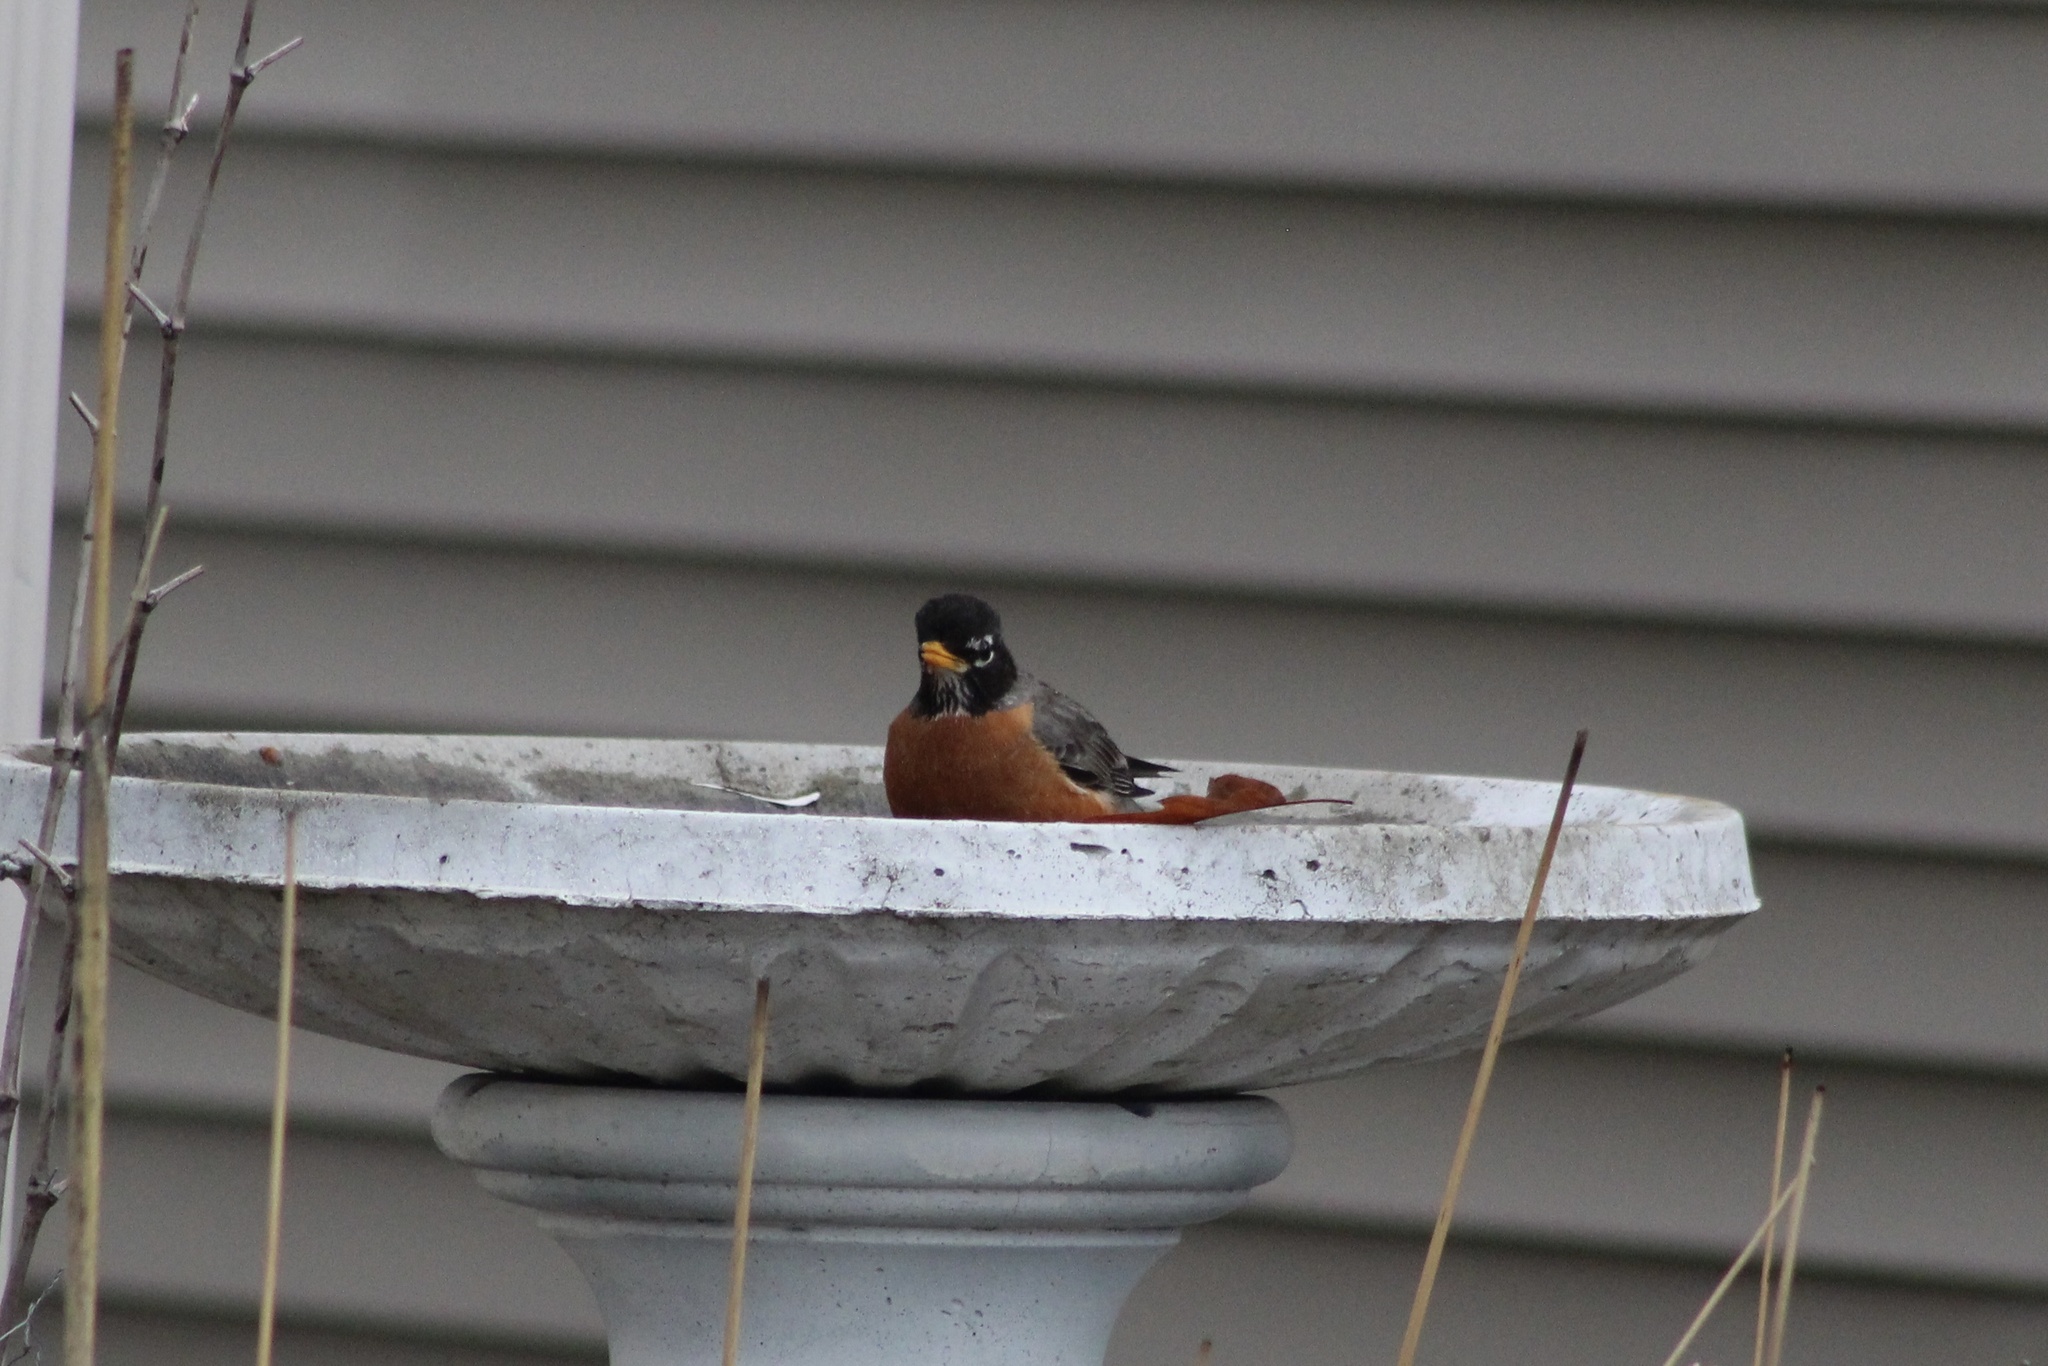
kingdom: Animalia
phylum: Chordata
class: Aves
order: Passeriformes
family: Turdidae
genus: Turdus
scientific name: Turdus migratorius
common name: American robin
